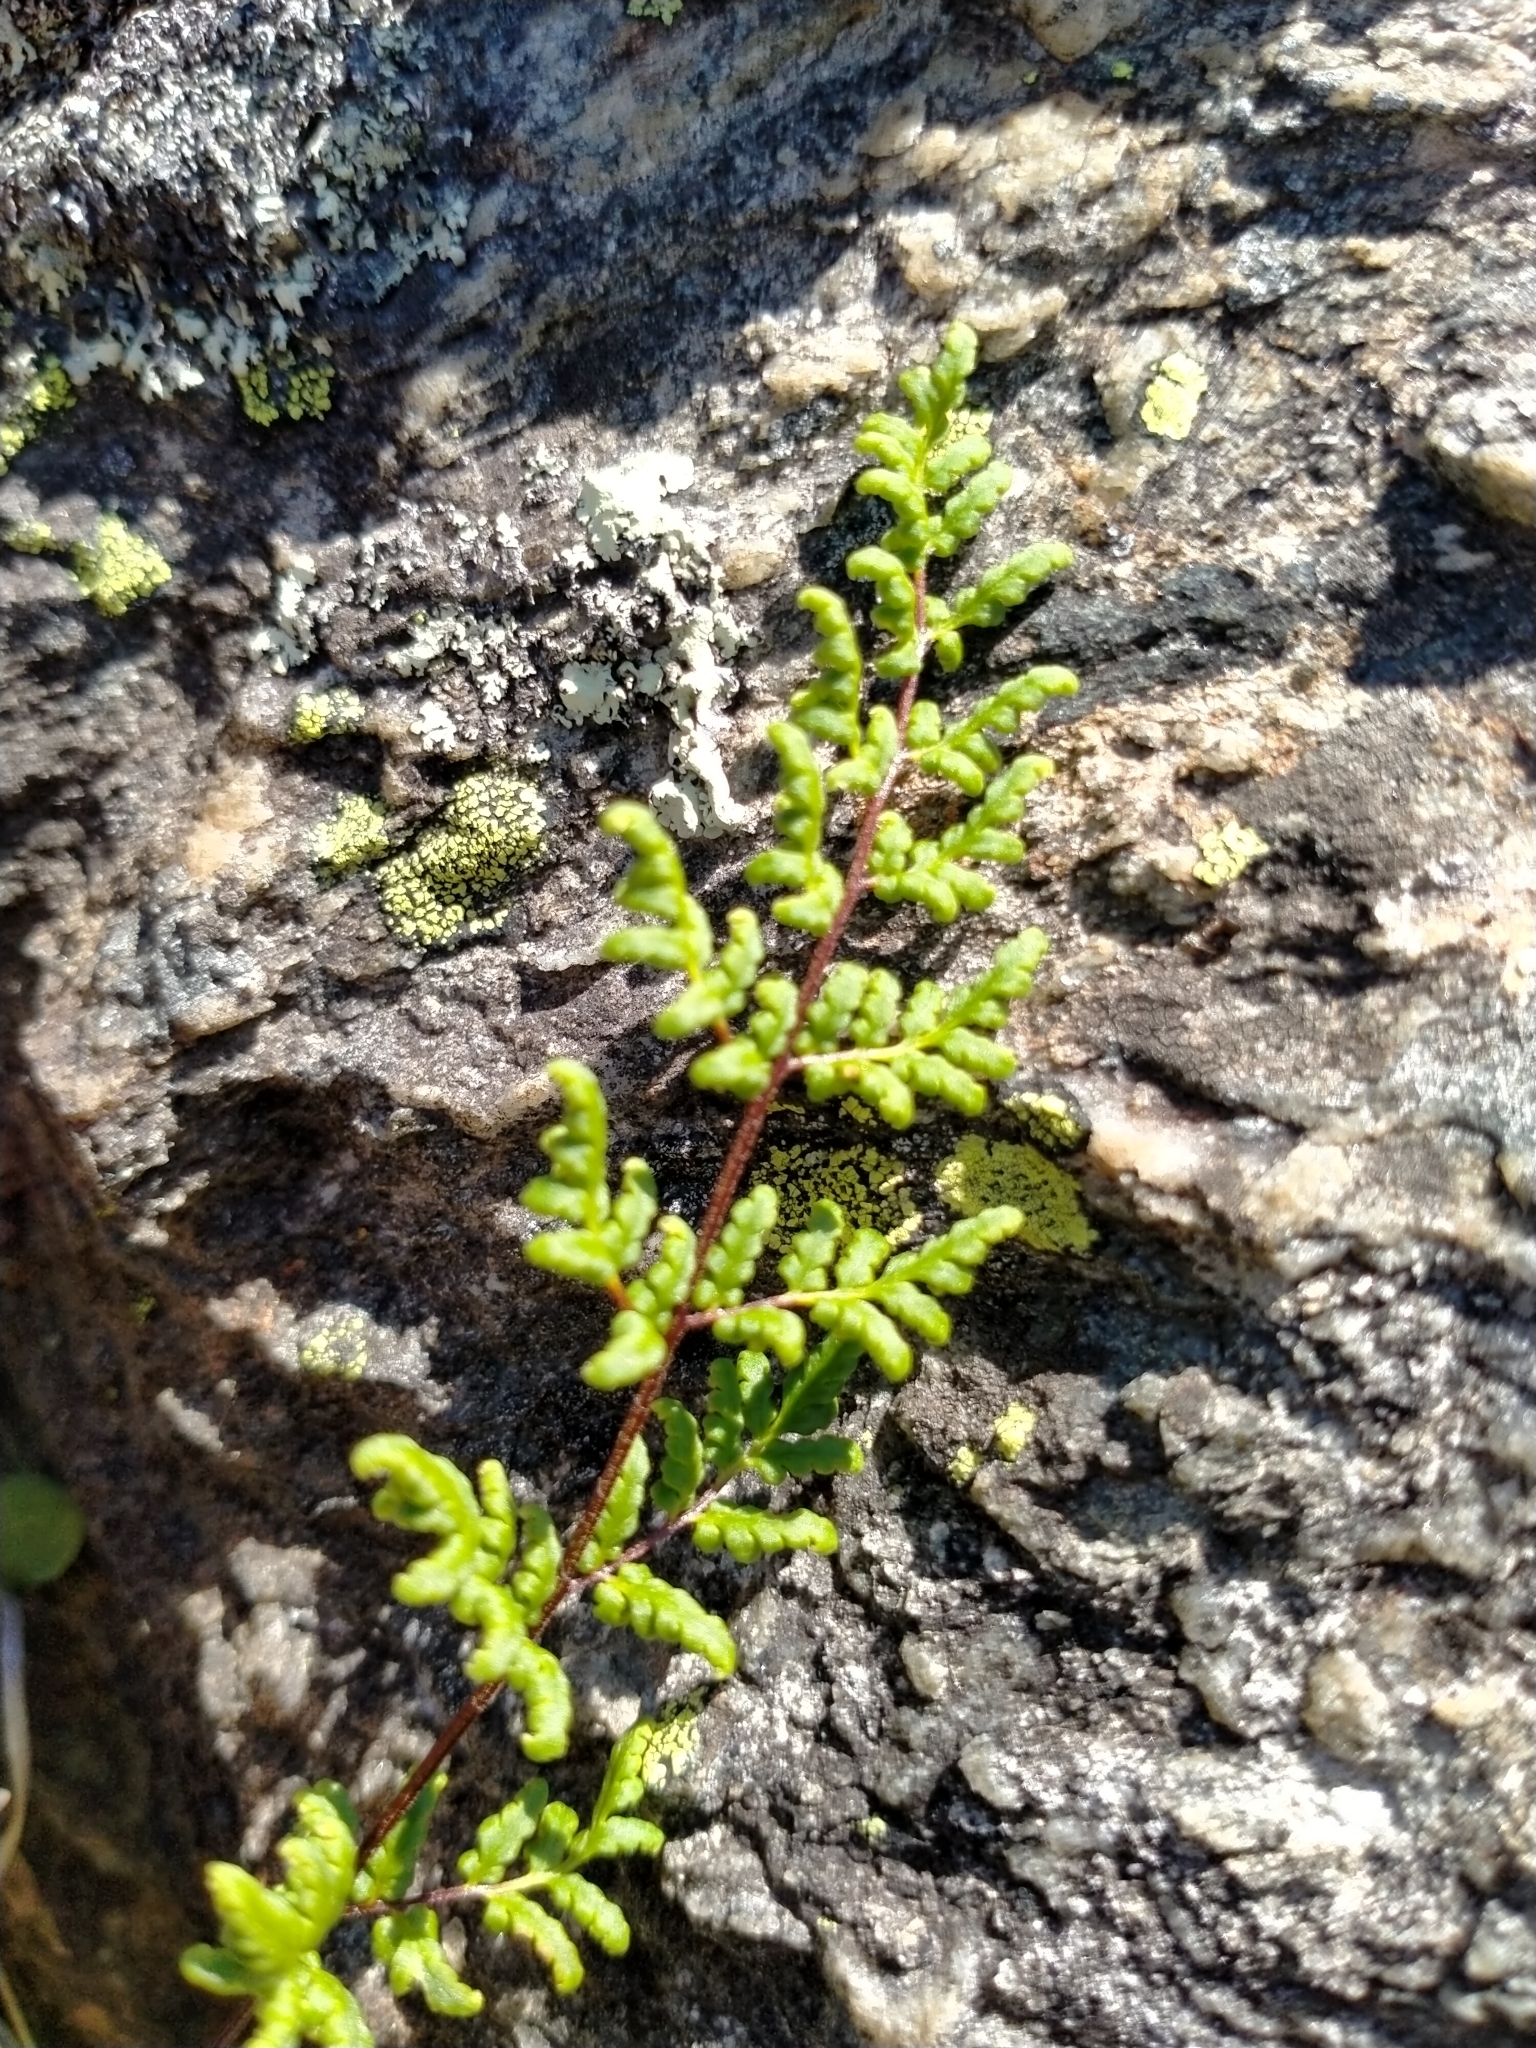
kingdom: Plantae
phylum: Tracheophyta
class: Polypodiopsida
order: Polypodiales
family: Pteridaceae
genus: Cheilanthes
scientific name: Cheilanthes sieberi
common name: Mulga fern
